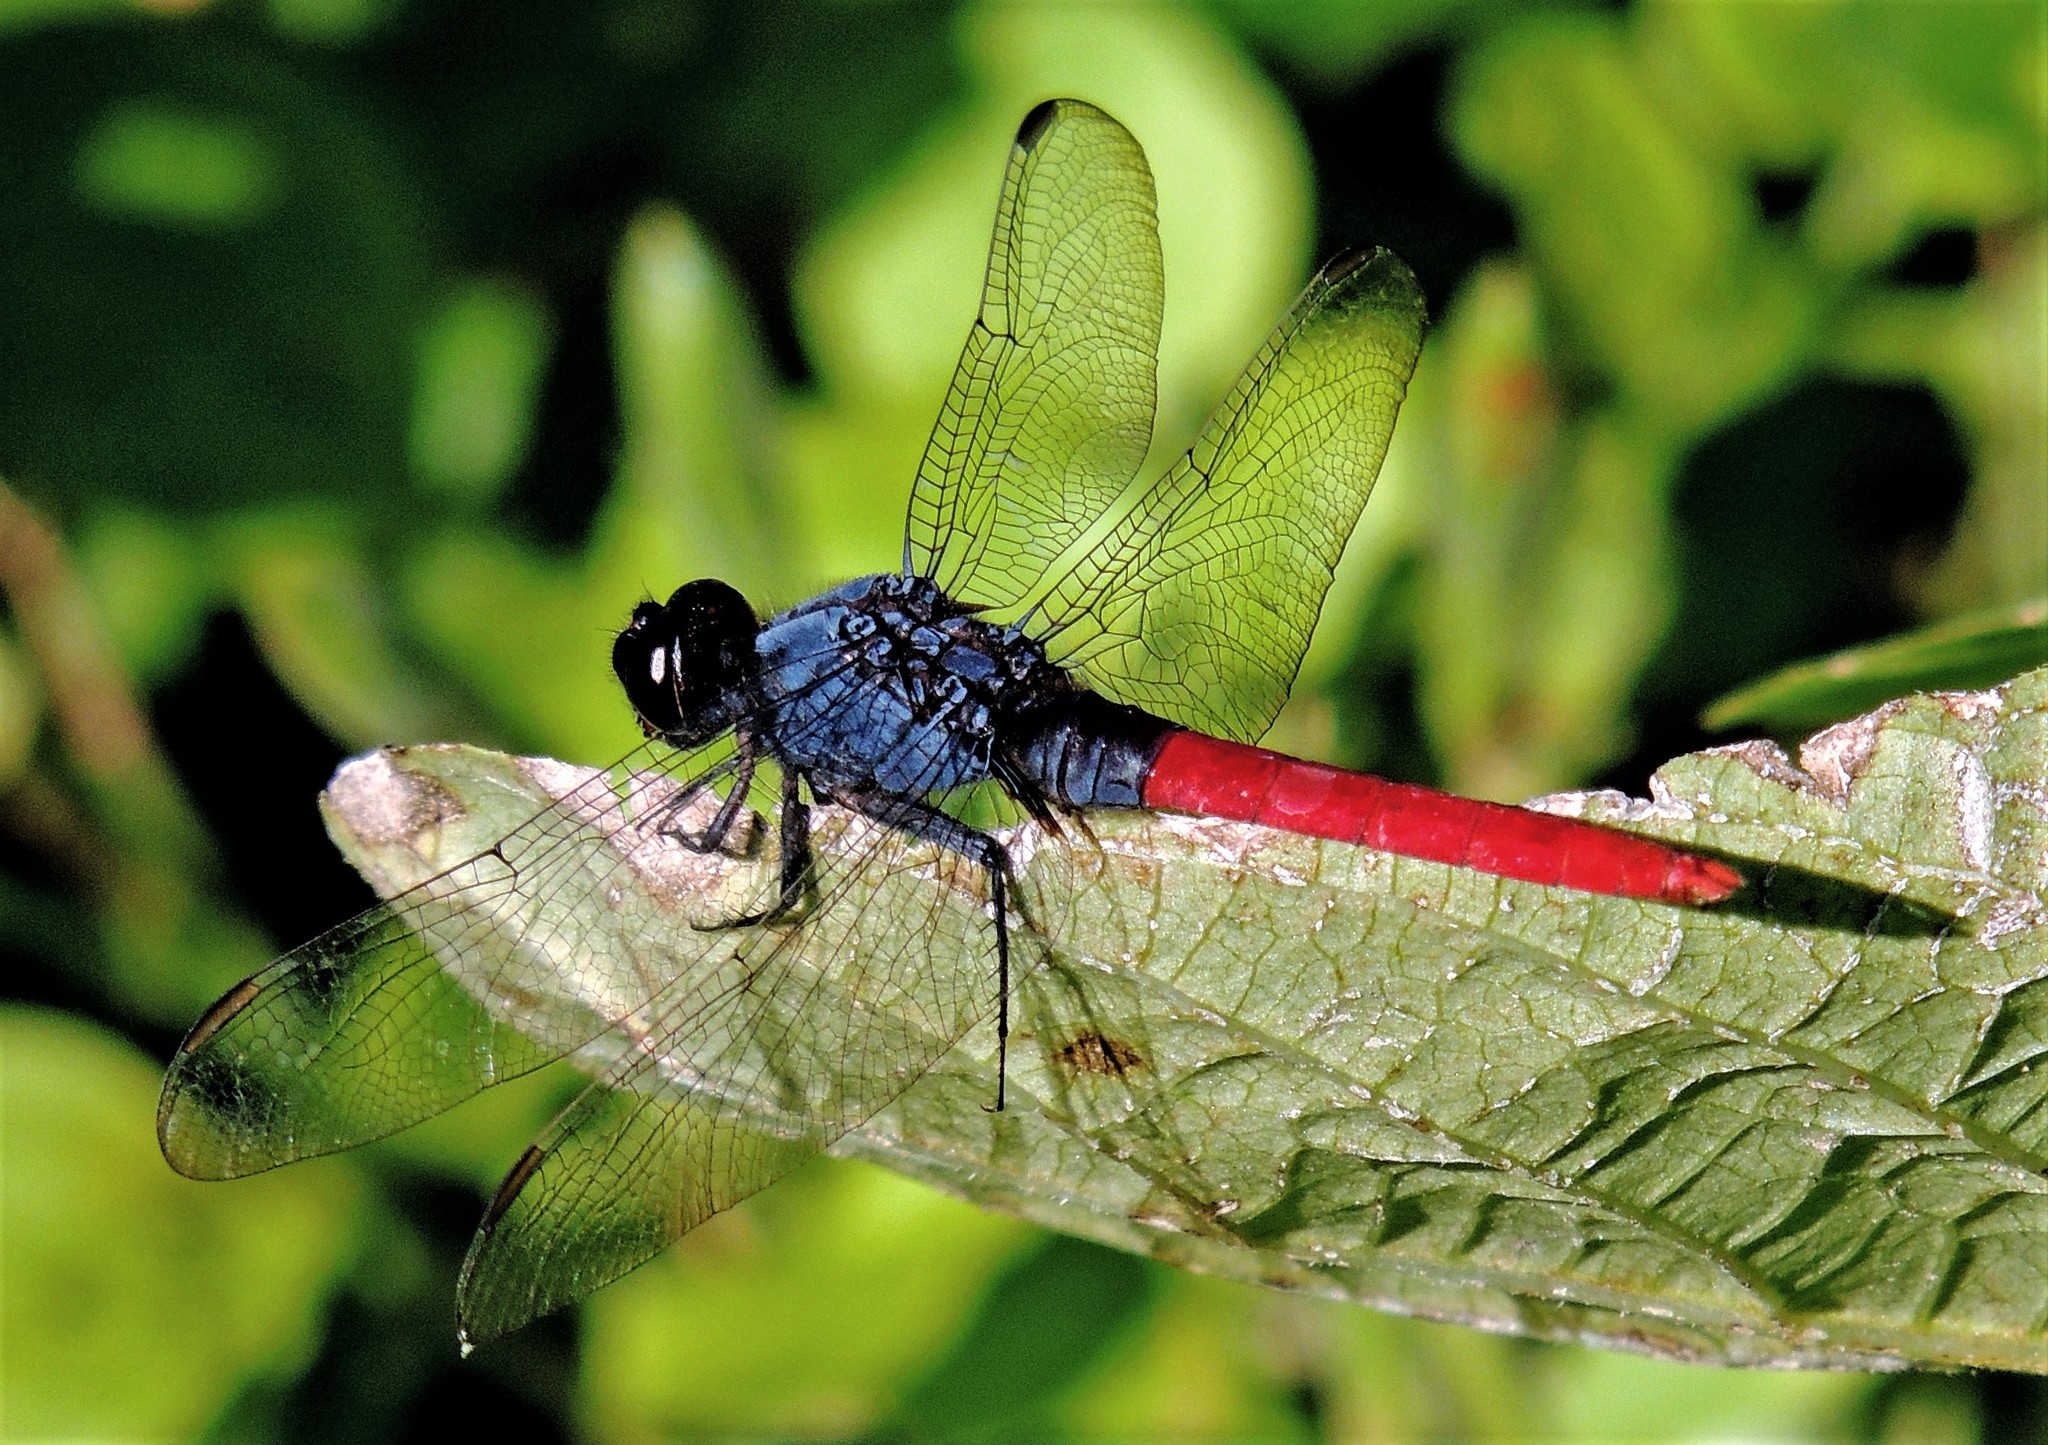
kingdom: Animalia
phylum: Arthropoda
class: Insecta
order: Odonata
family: Libellulidae
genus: Erythemis
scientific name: Erythemis peruviana
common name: Flame-tailed pondhawk
